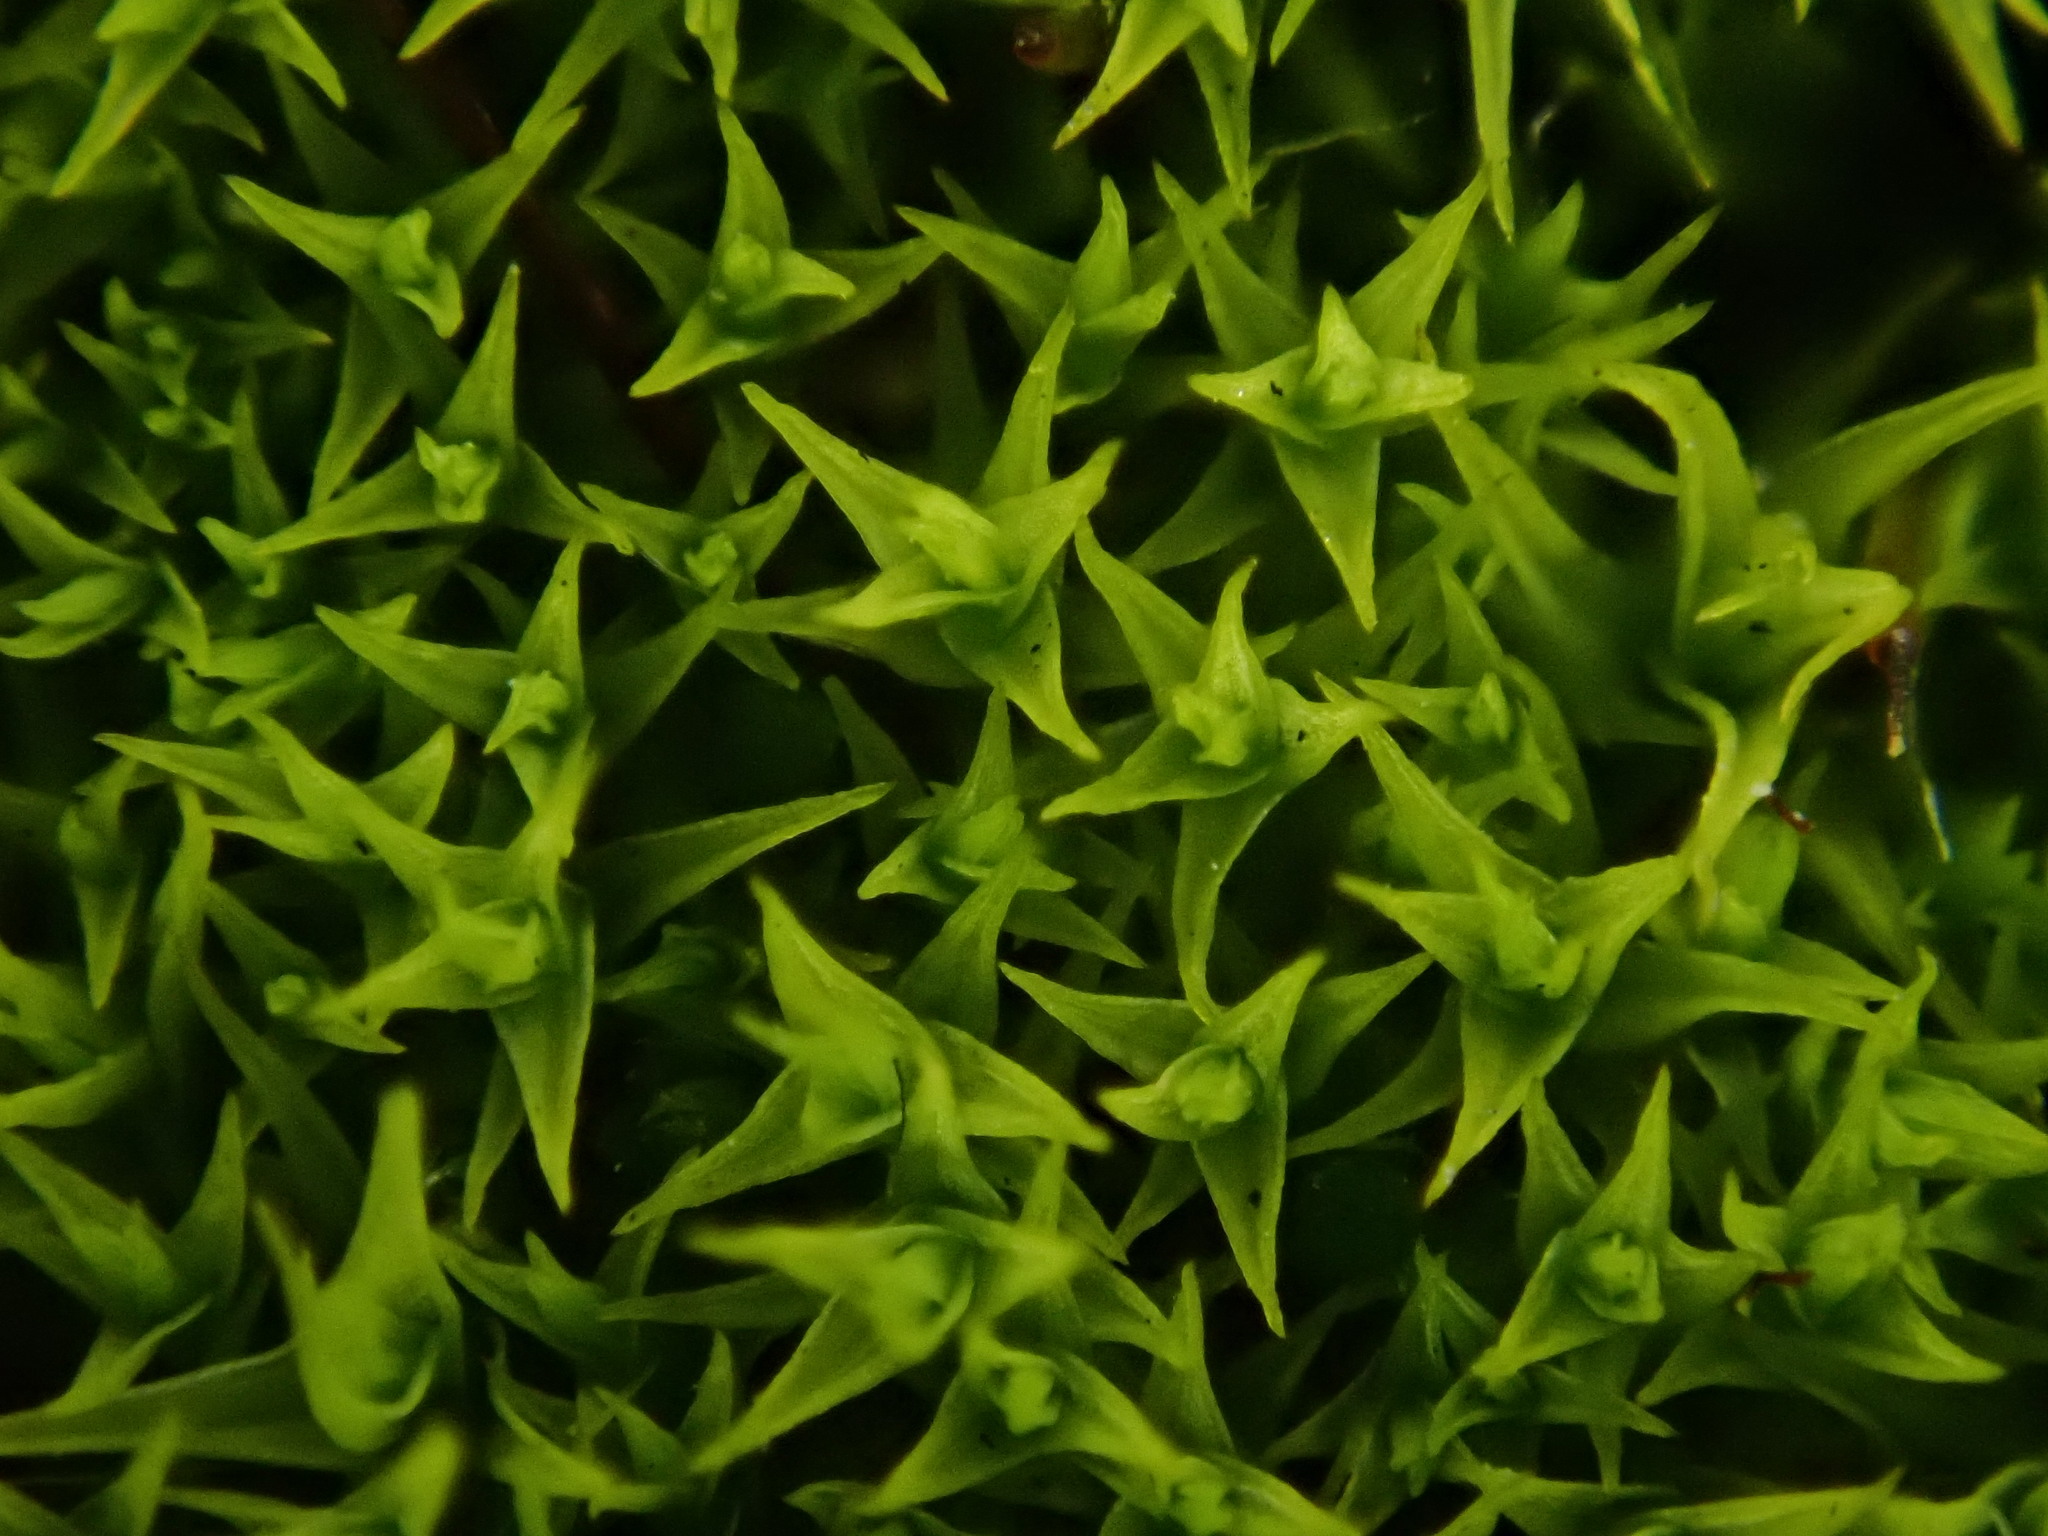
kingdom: Plantae
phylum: Bryophyta
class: Bryopsida
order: Pottiales
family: Pottiaceae
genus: Vinealobryum
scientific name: Vinealobryum vineale
